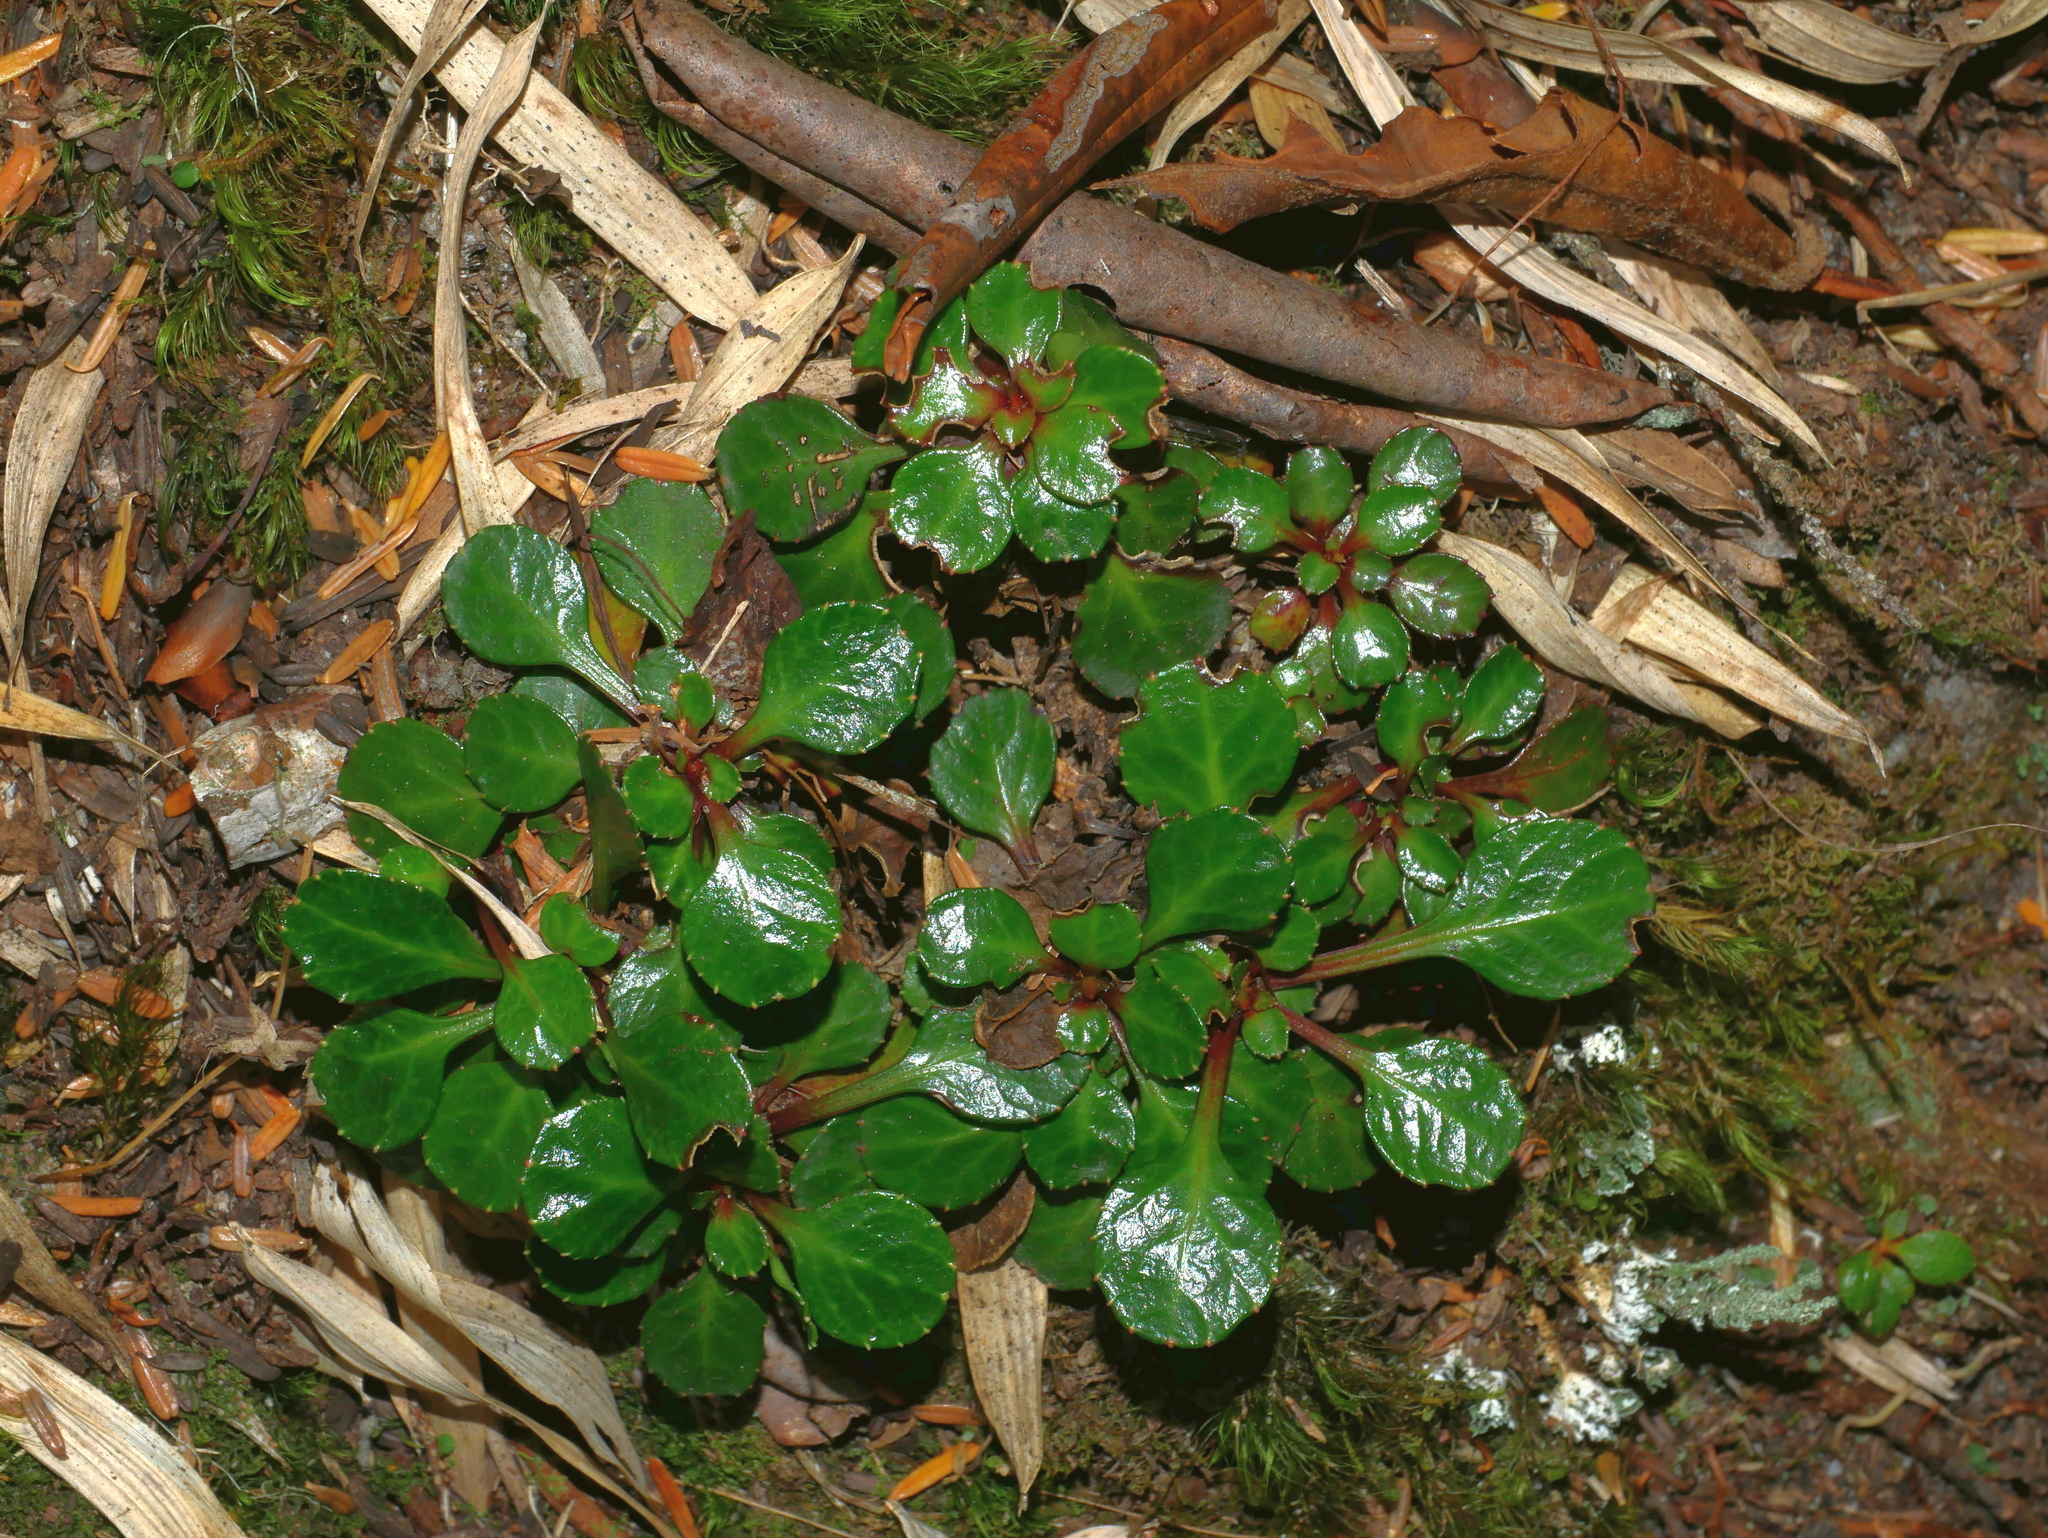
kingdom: Plantae
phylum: Tracheophyta
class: Magnoliopsida
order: Ericales
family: Diapensiaceae
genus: Shortia
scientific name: Shortia rotundifolia
